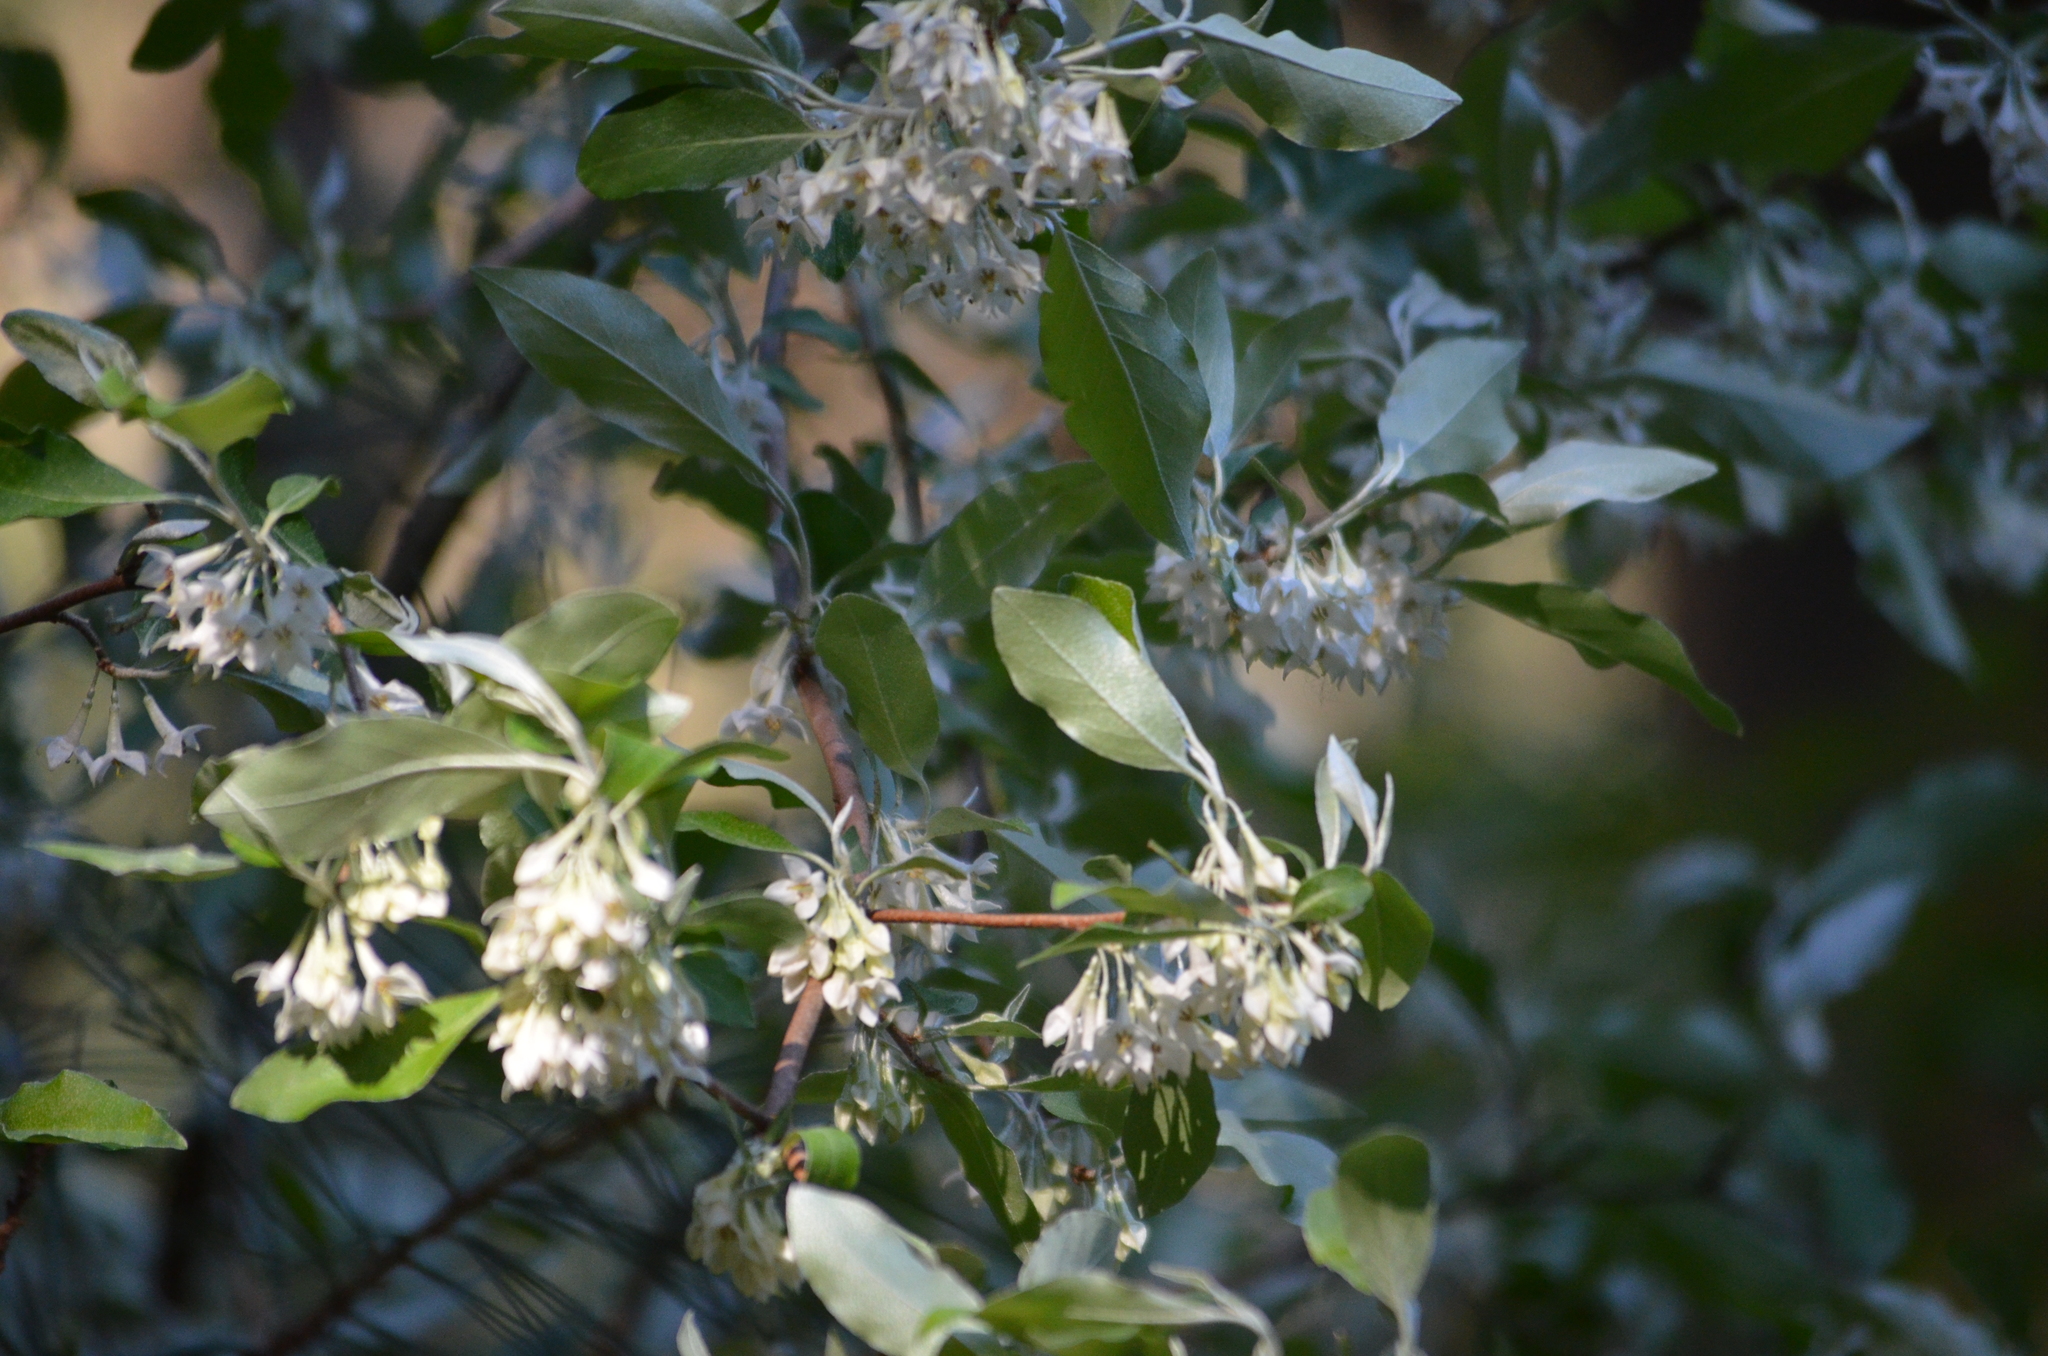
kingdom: Plantae
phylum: Tracheophyta
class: Magnoliopsida
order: Rosales
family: Elaeagnaceae
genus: Elaeagnus
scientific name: Elaeagnus umbellata
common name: Autumn olive
